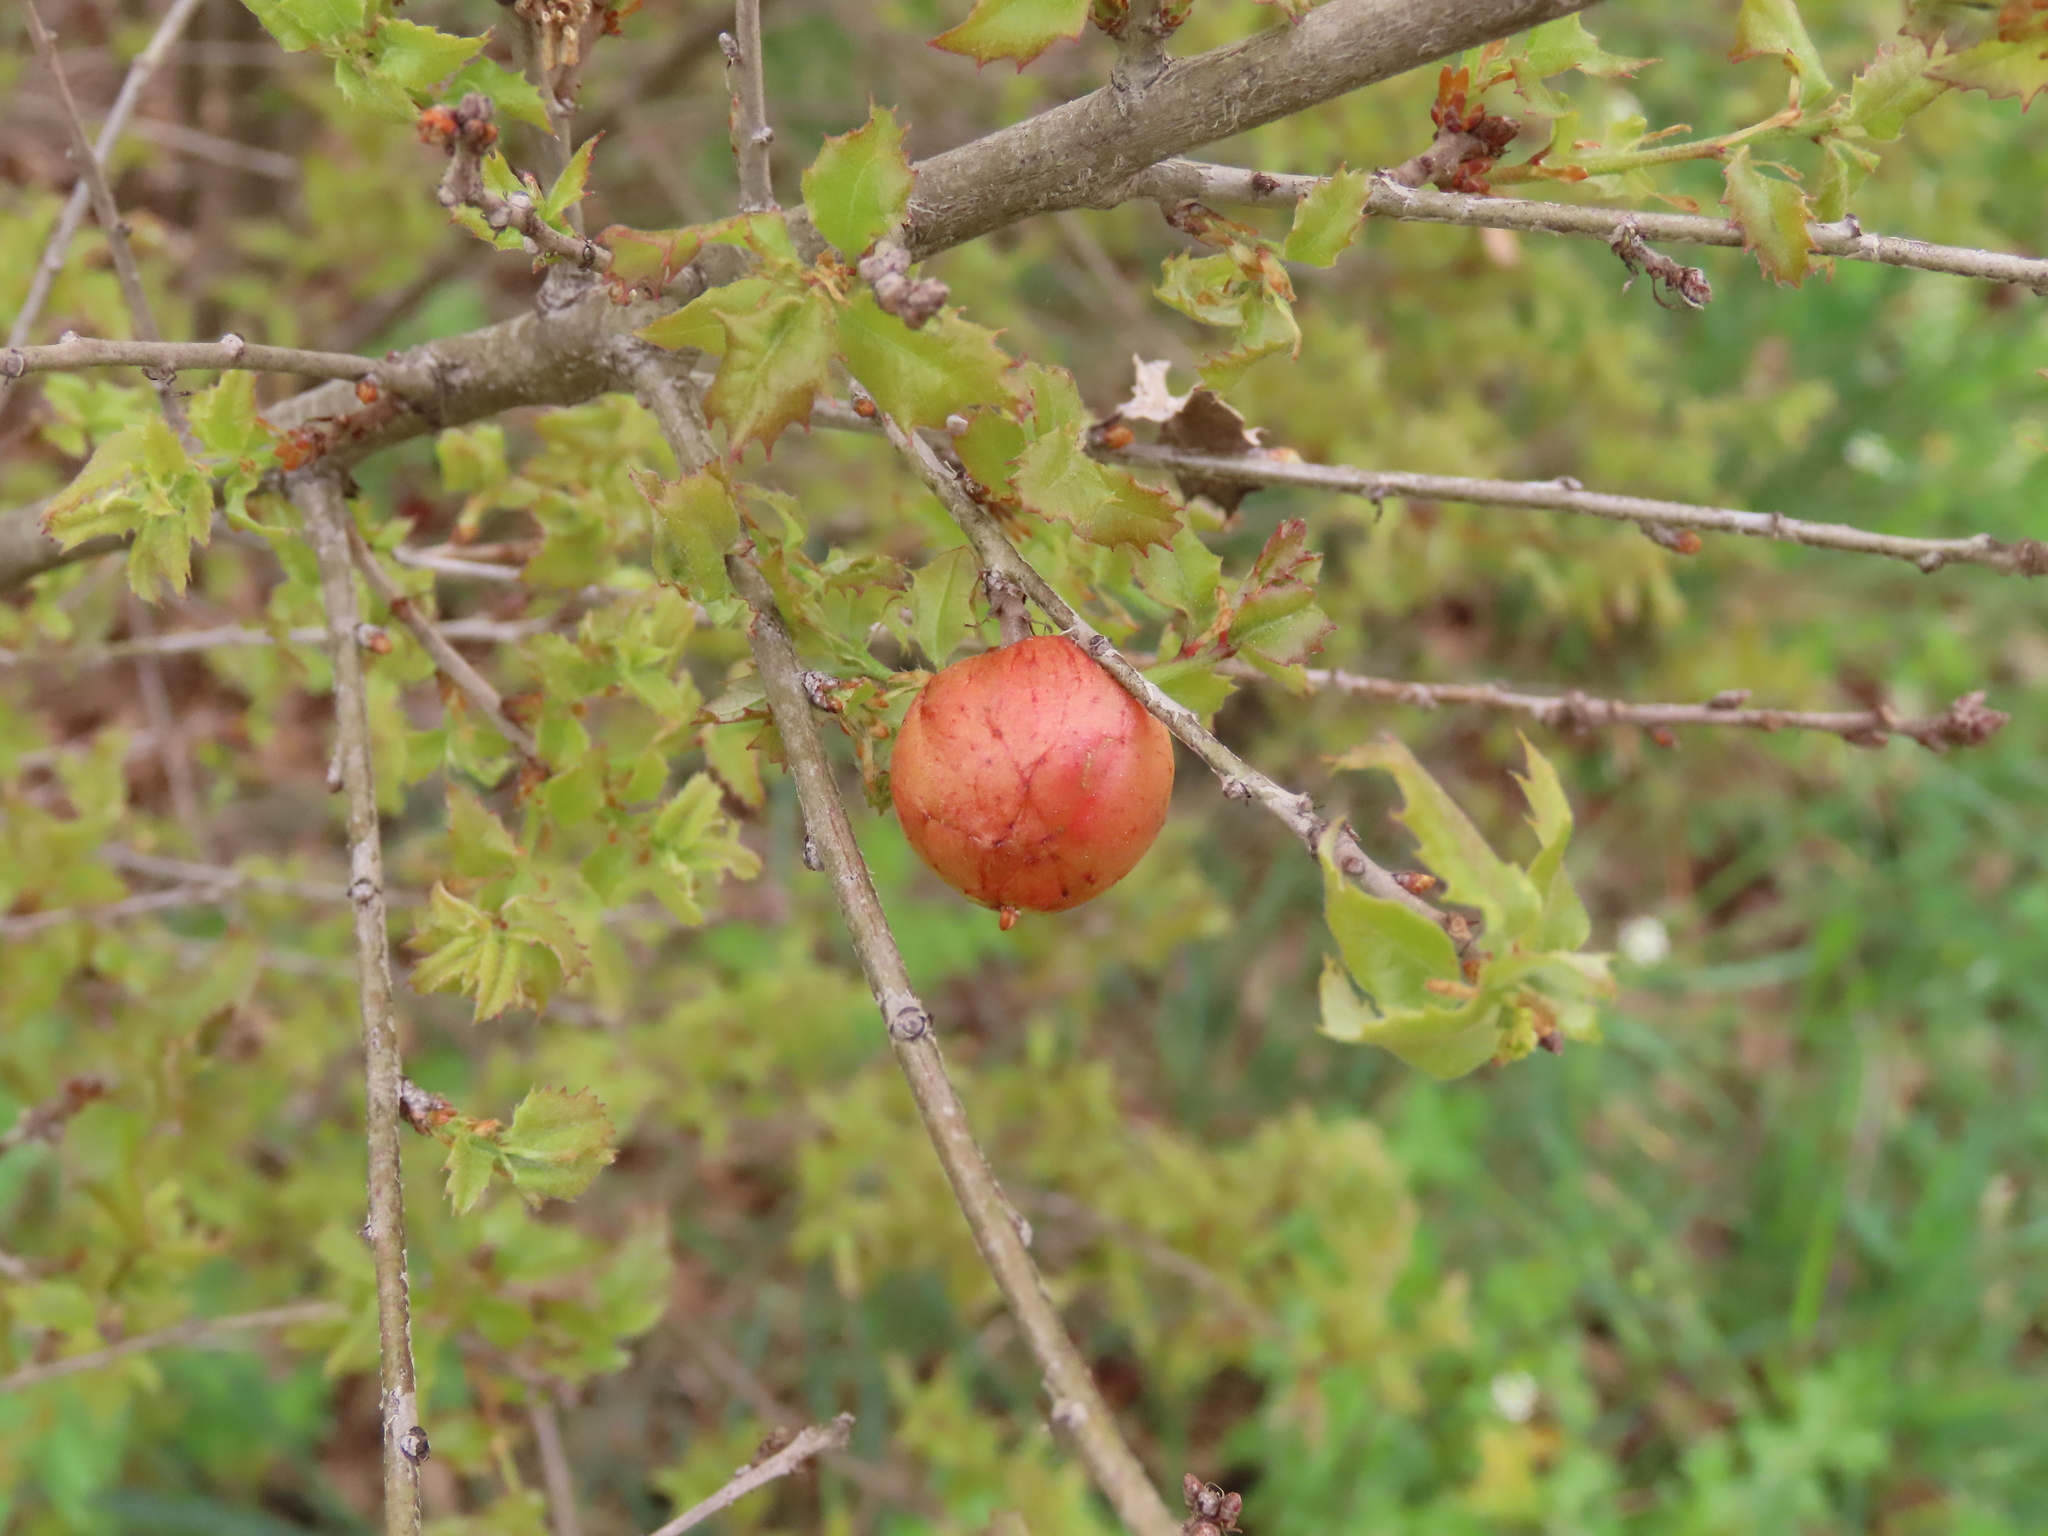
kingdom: Animalia
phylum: Arthropoda
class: Insecta
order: Hymenoptera
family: Cynipidae
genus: Biorhiza
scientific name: Biorhiza pallida
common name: Oak apple
